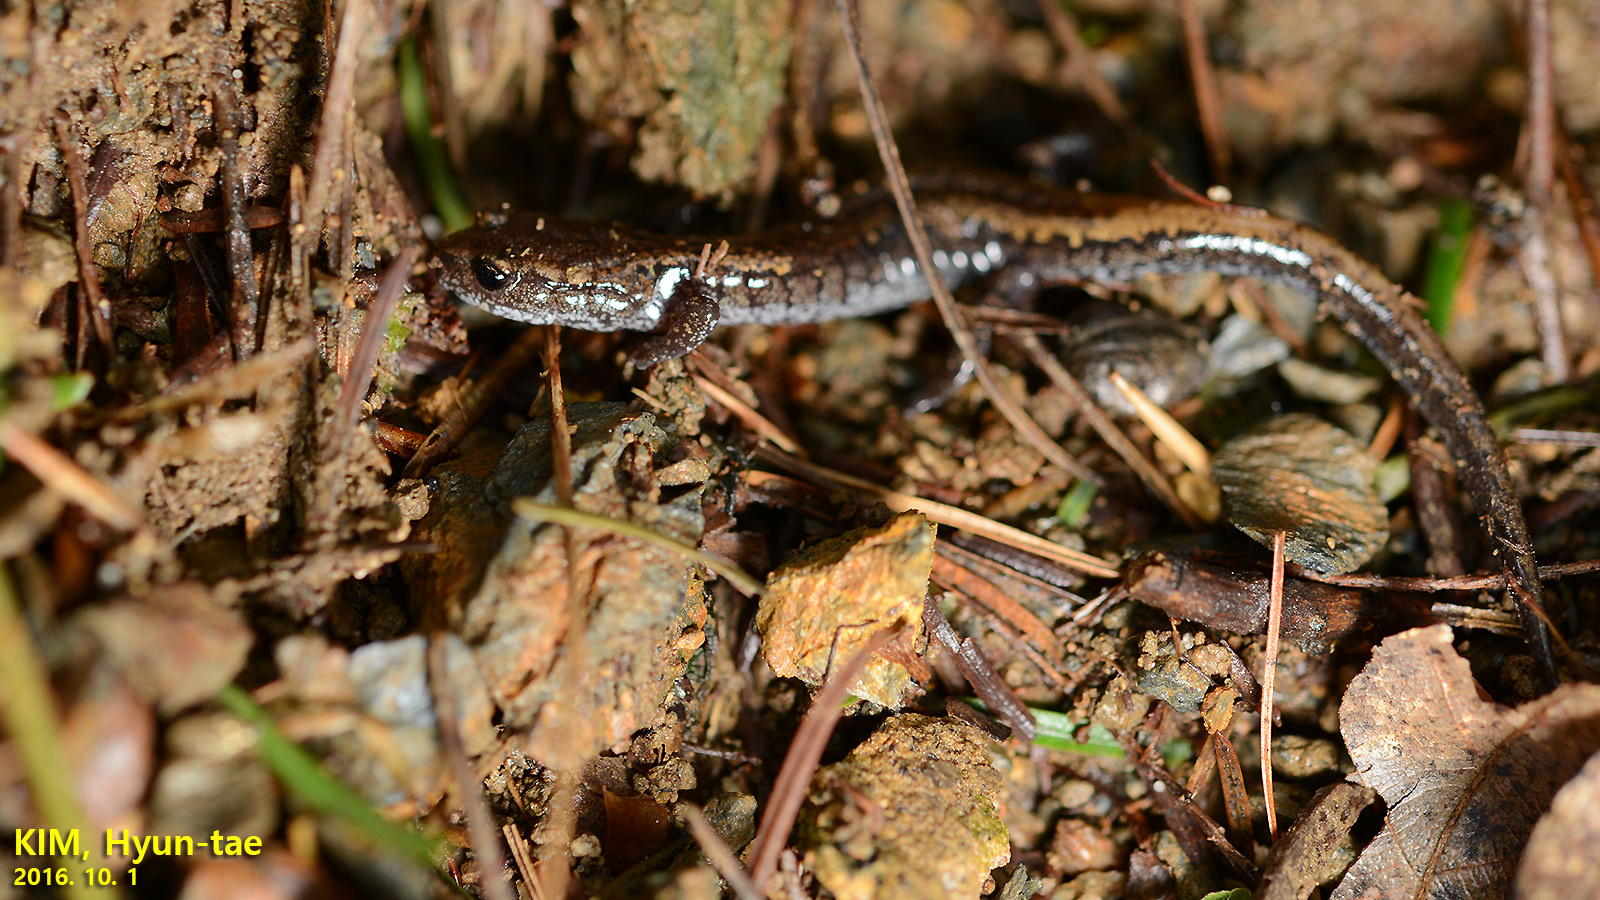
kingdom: Animalia
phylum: Chordata
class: Amphibia
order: Caudata
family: Plethodontidae
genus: Karsenia
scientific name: Karsenia koreana
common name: Korean crevice salamander
